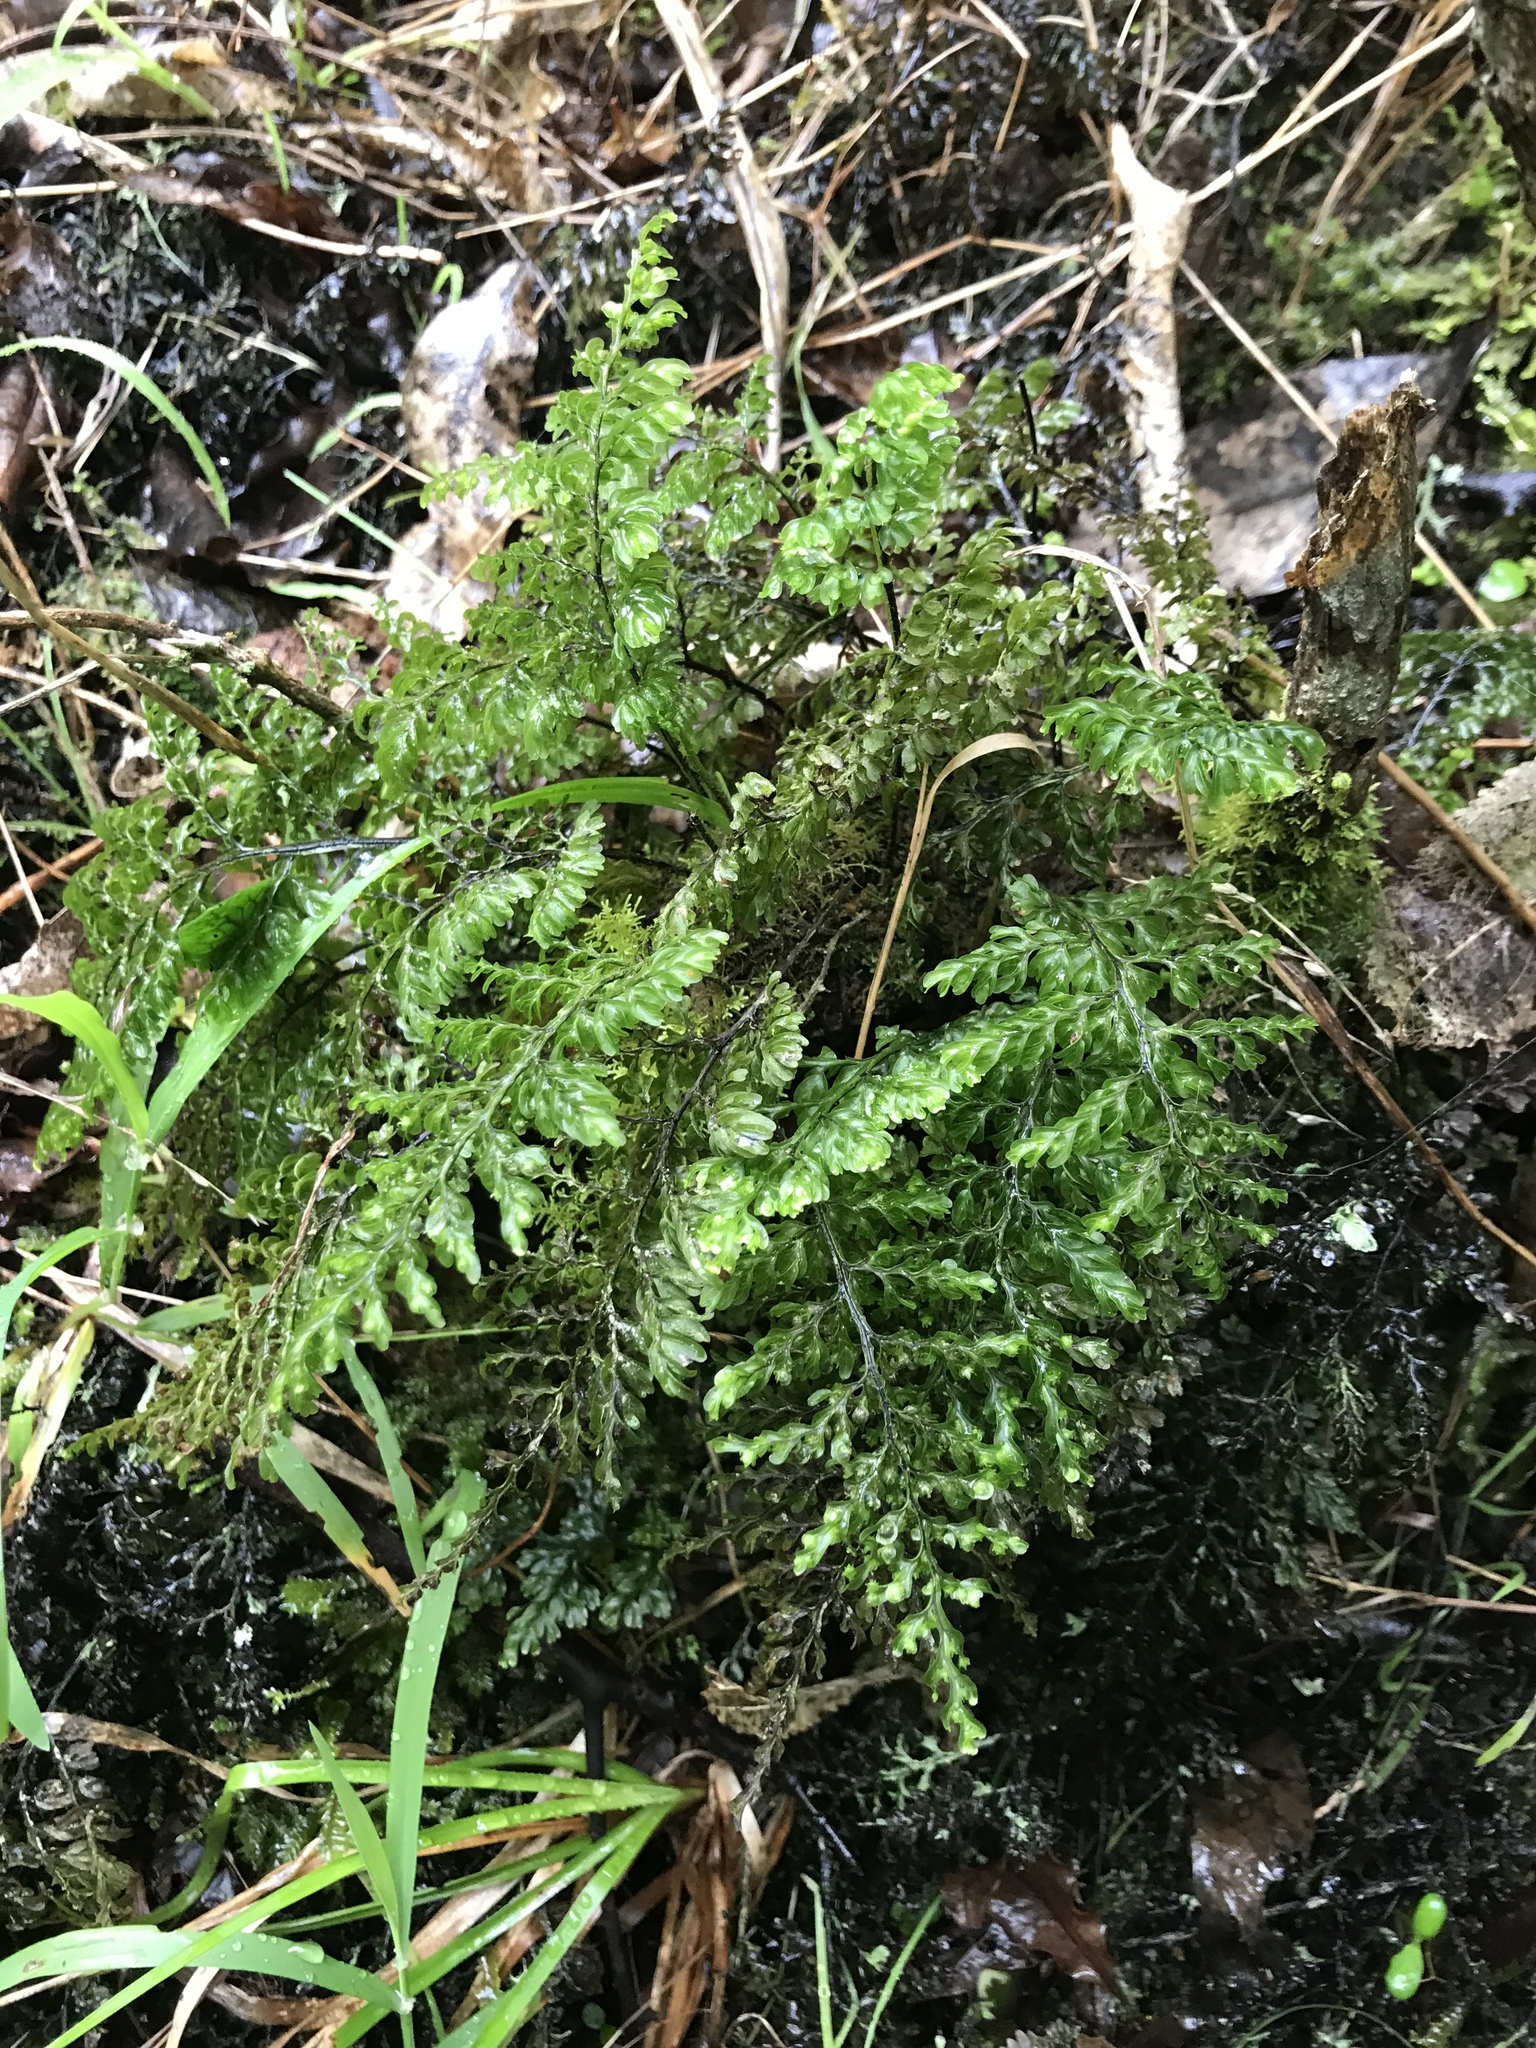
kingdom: Plantae
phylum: Tracheophyta
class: Polypodiopsida
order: Hymenophyllales
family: Hymenophyllaceae
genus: Hymenophyllum
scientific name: Hymenophyllum sanguinolentum
